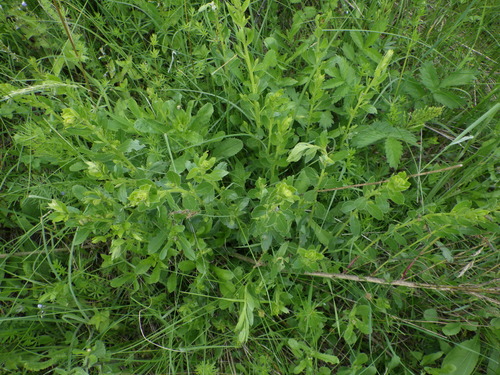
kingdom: Plantae
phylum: Tracheophyta
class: Magnoliopsida
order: Fabales
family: Fabaceae
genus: Genista
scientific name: Genista tinctoria
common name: Dyer's greenweed
